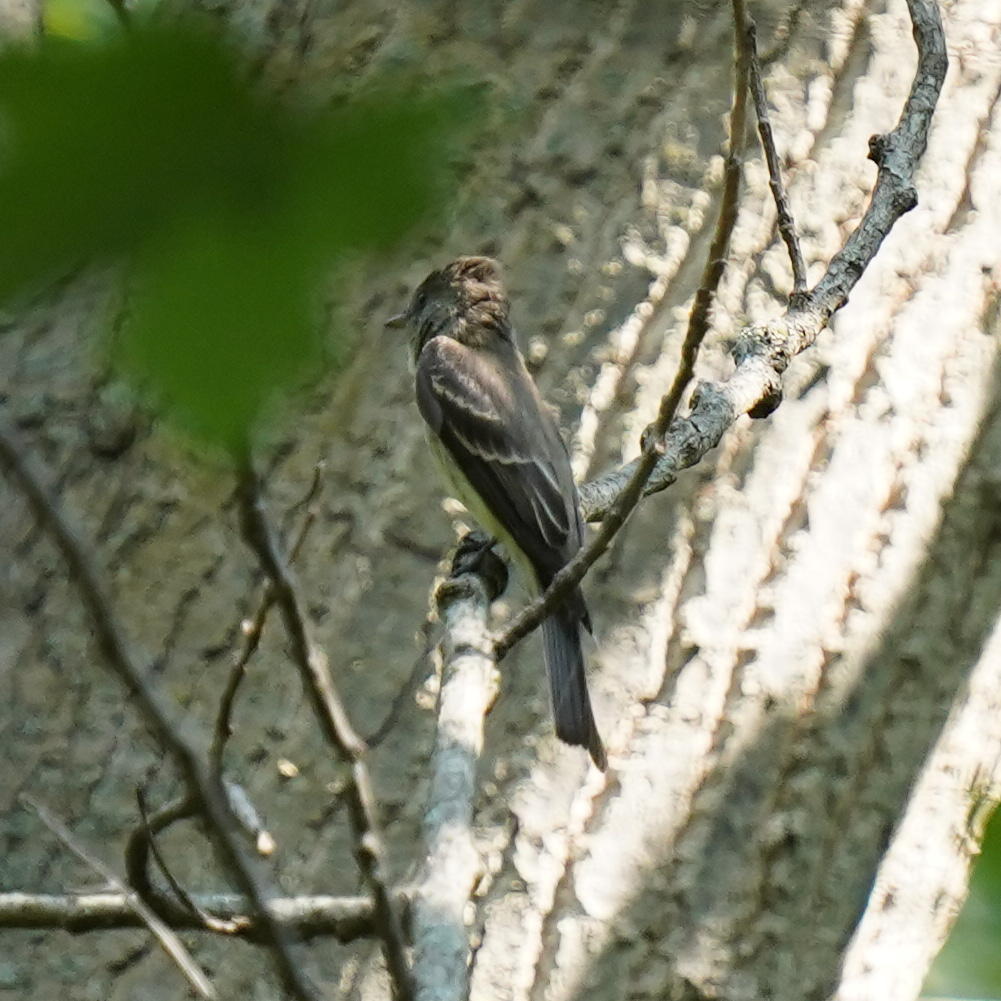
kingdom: Animalia
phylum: Chordata
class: Aves
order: Passeriformes
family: Tyrannidae
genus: Contopus
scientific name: Contopus virens
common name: Eastern wood-pewee
